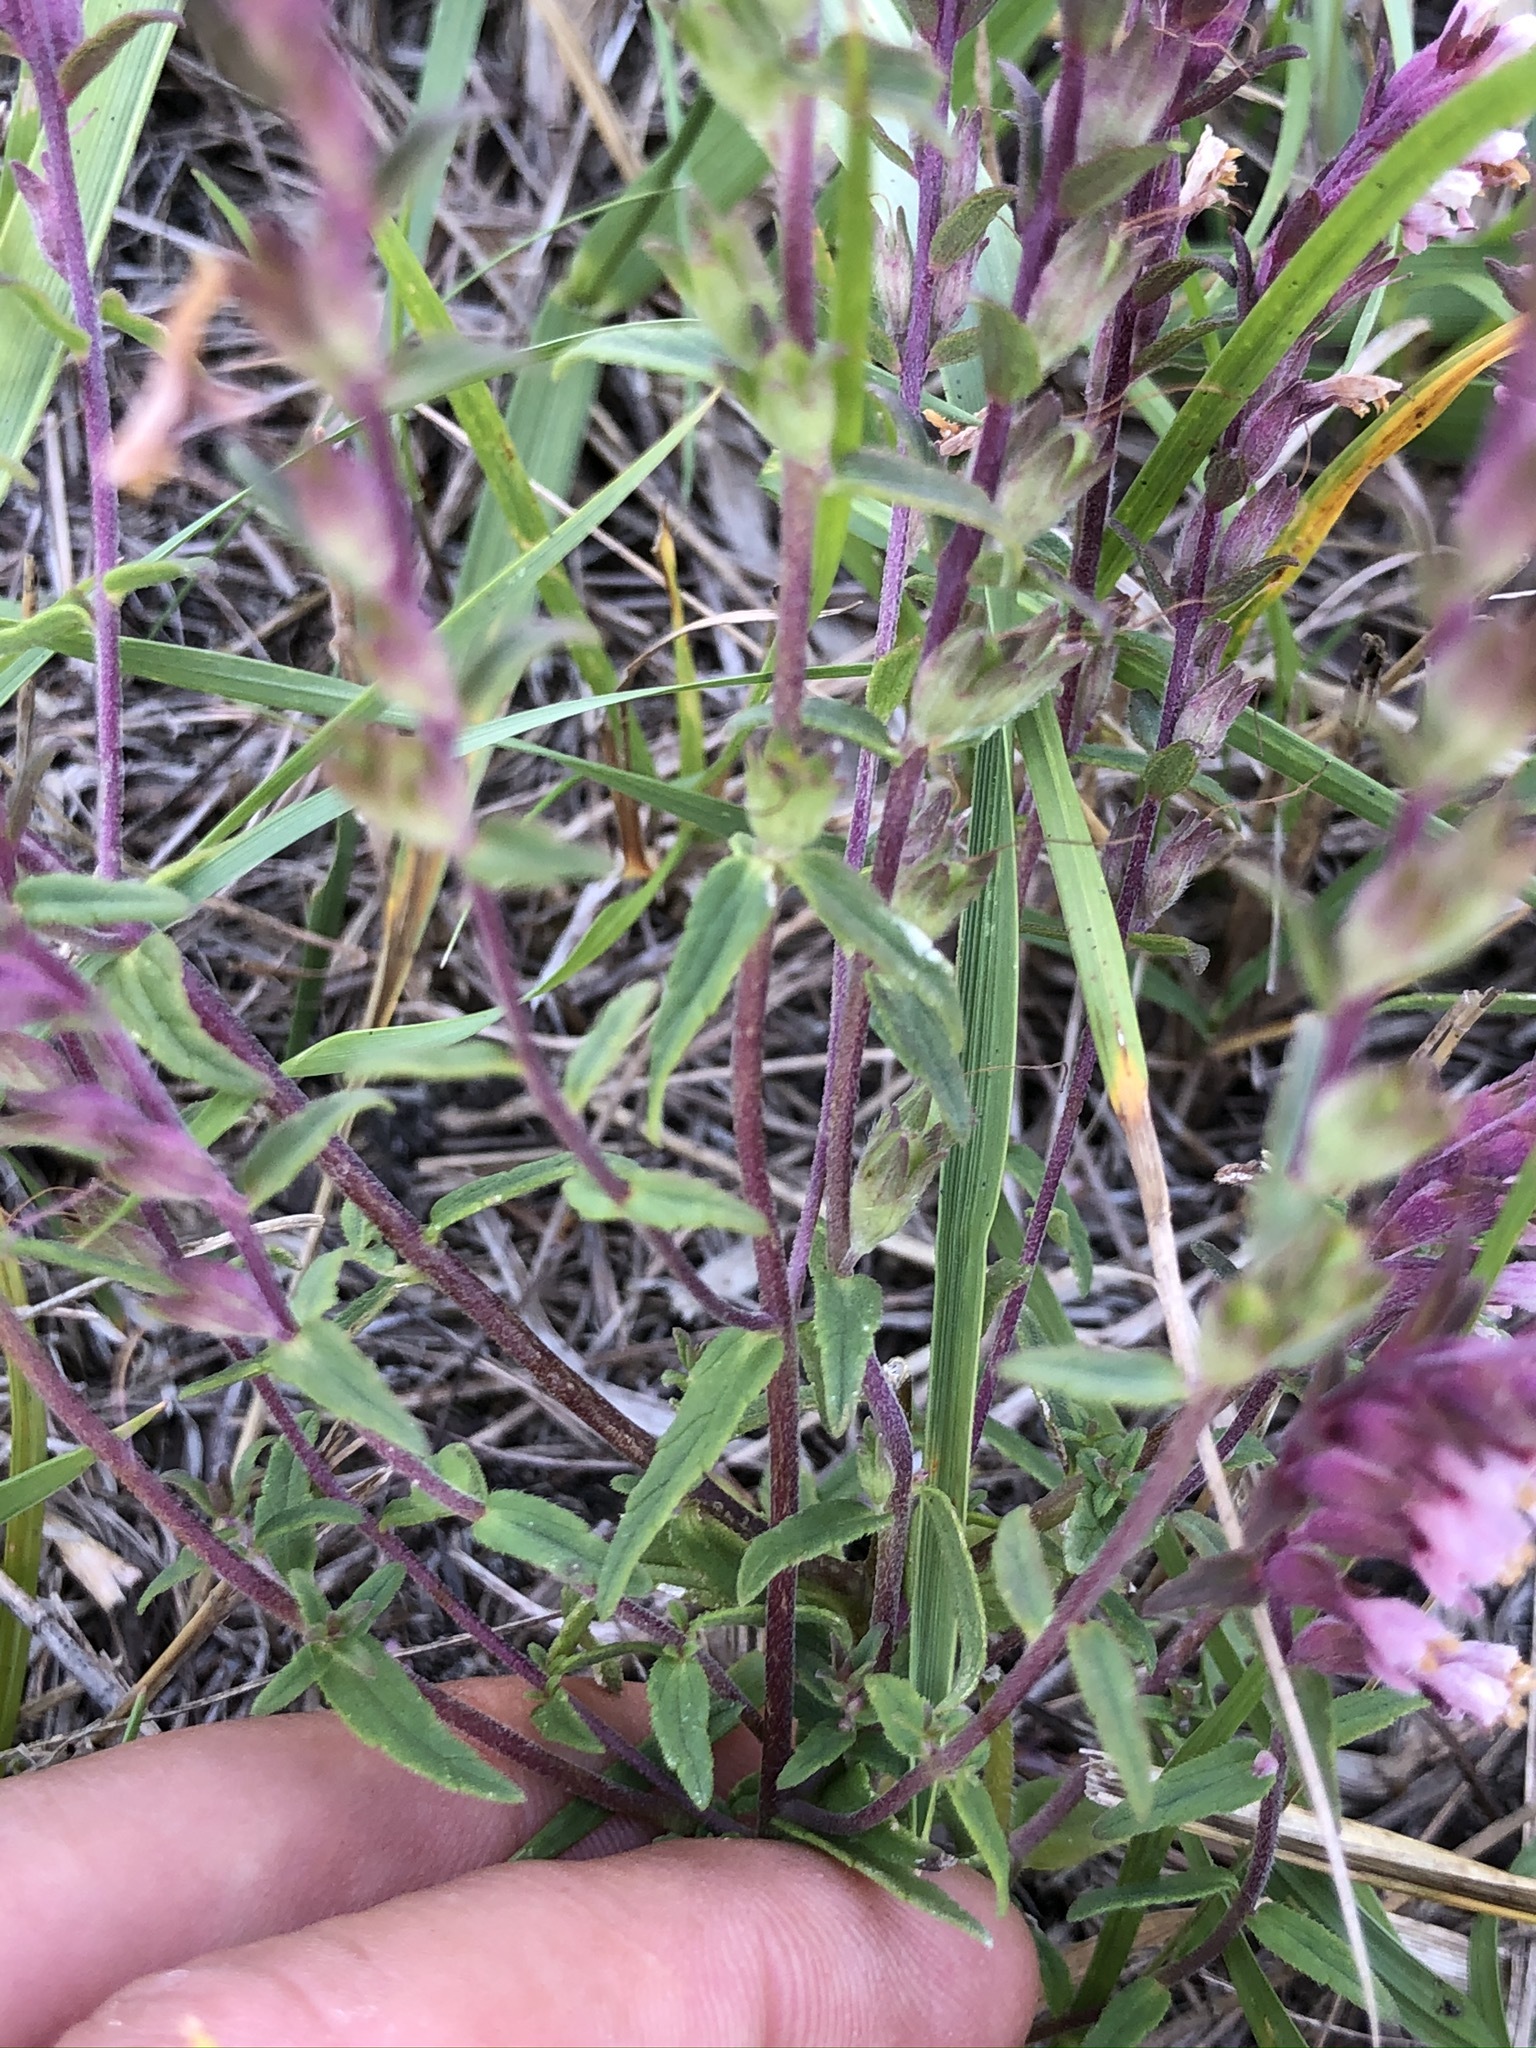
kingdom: Plantae
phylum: Tracheophyta
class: Magnoliopsida
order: Lamiales
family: Orobanchaceae
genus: Odontites
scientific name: Odontites vulgaris
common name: Broomrape
